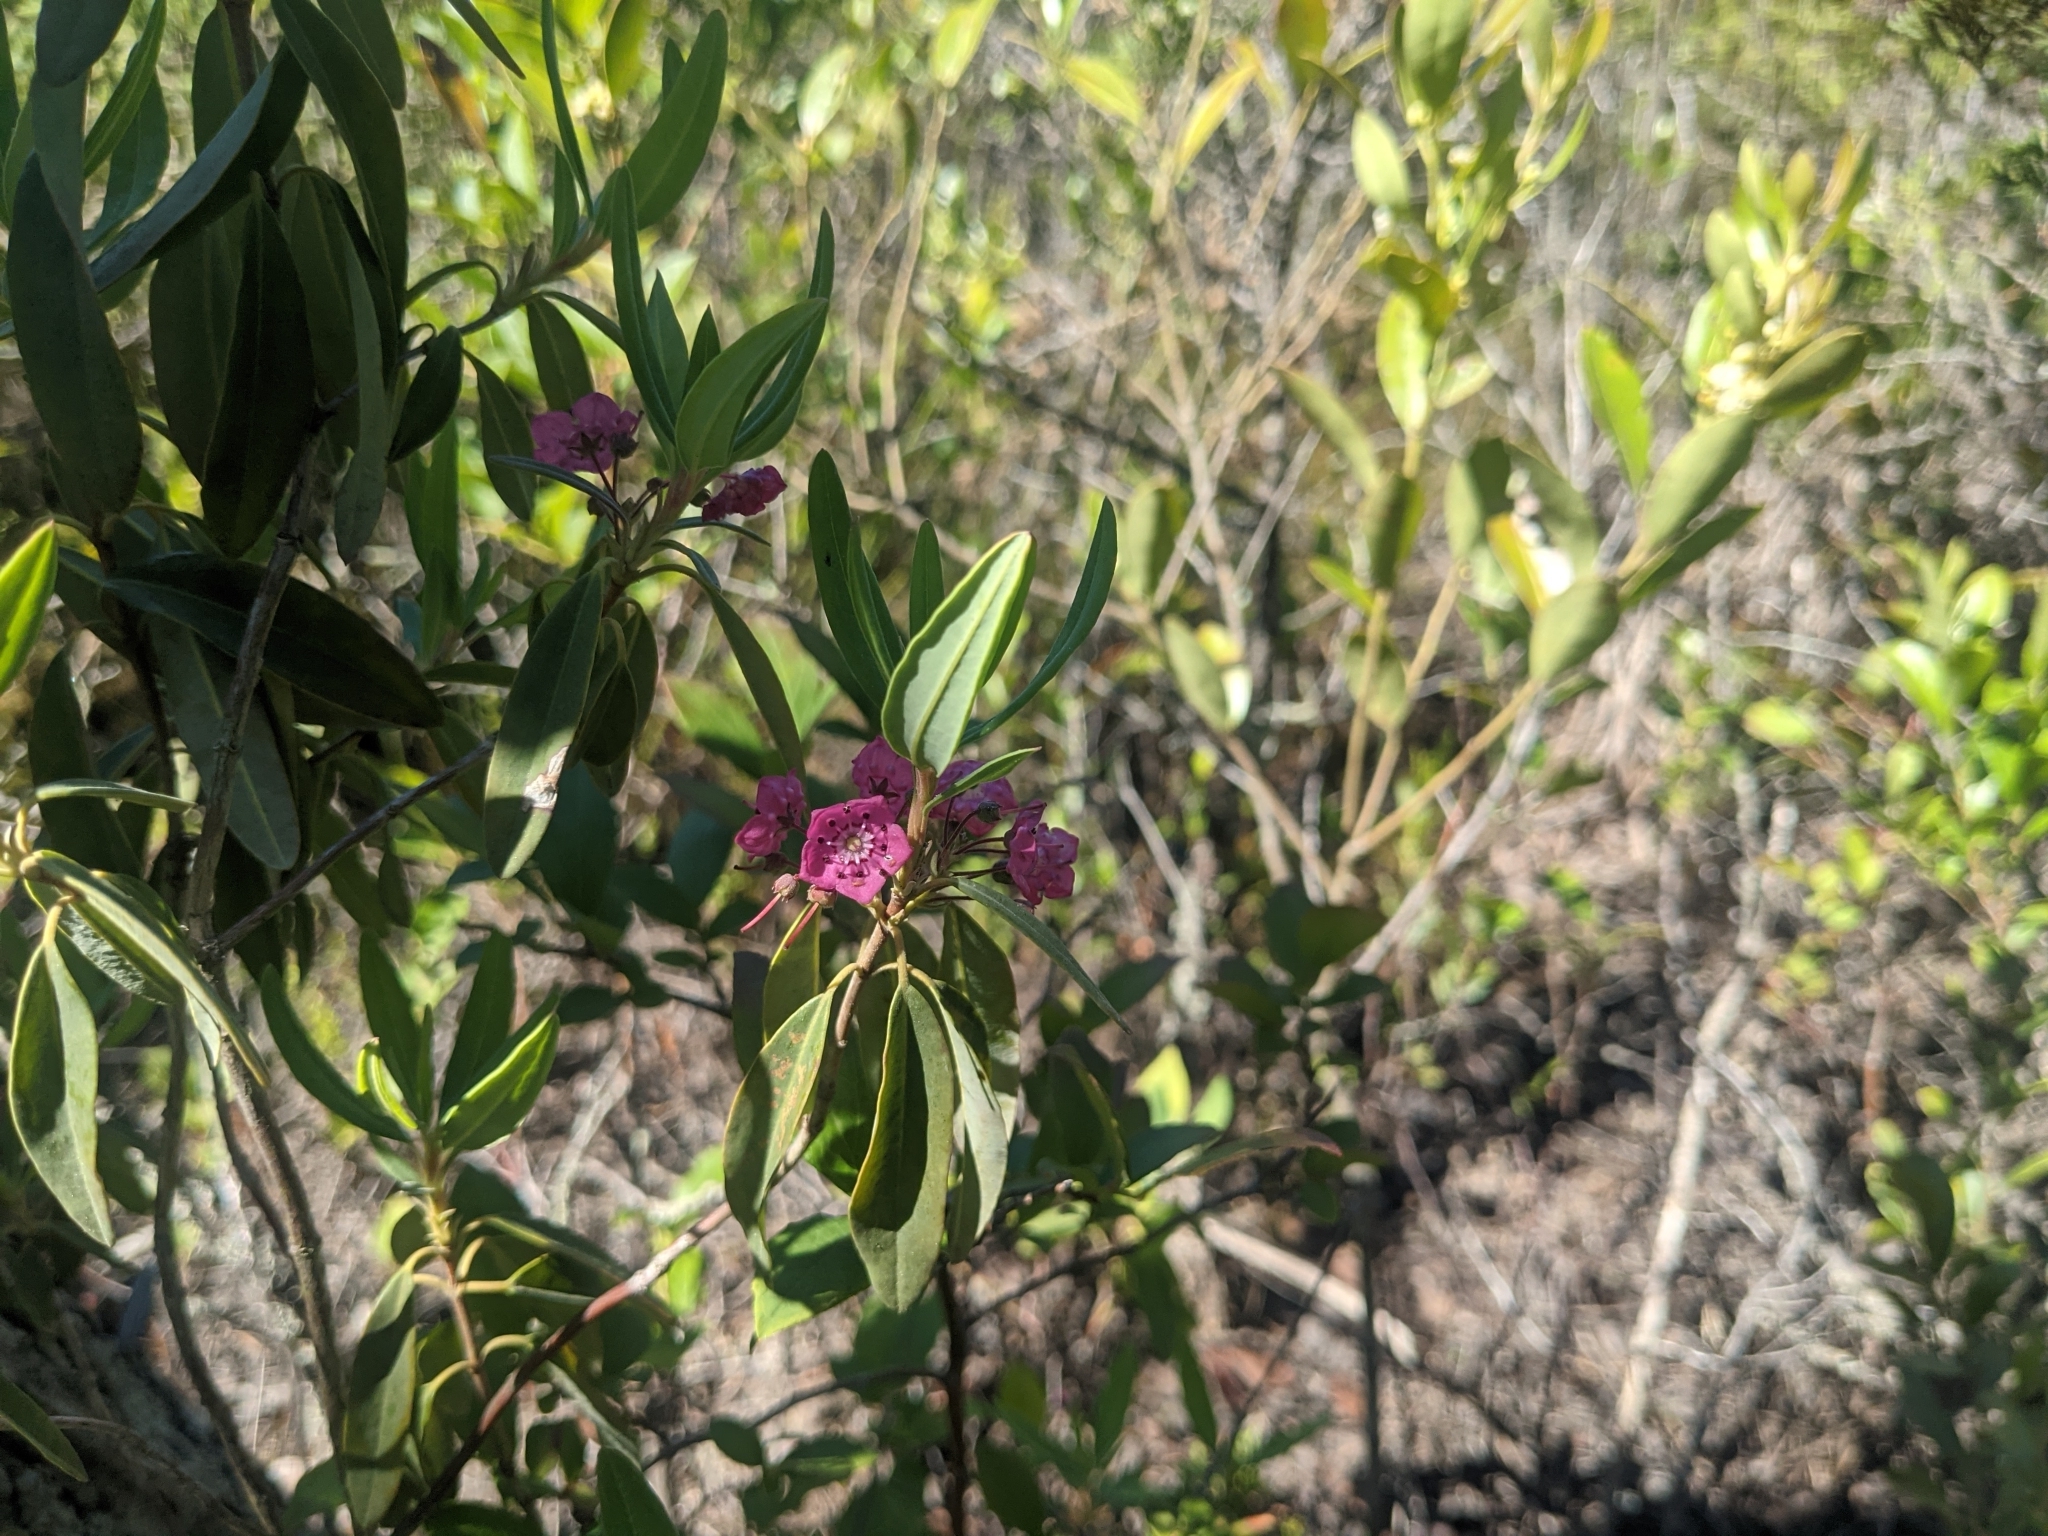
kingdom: Plantae
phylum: Tracheophyta
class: Magnoliopsida
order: Ericales
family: Ericaceae
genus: Kalmia
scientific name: Kalmia angustifolia
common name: Sheep-laurel
